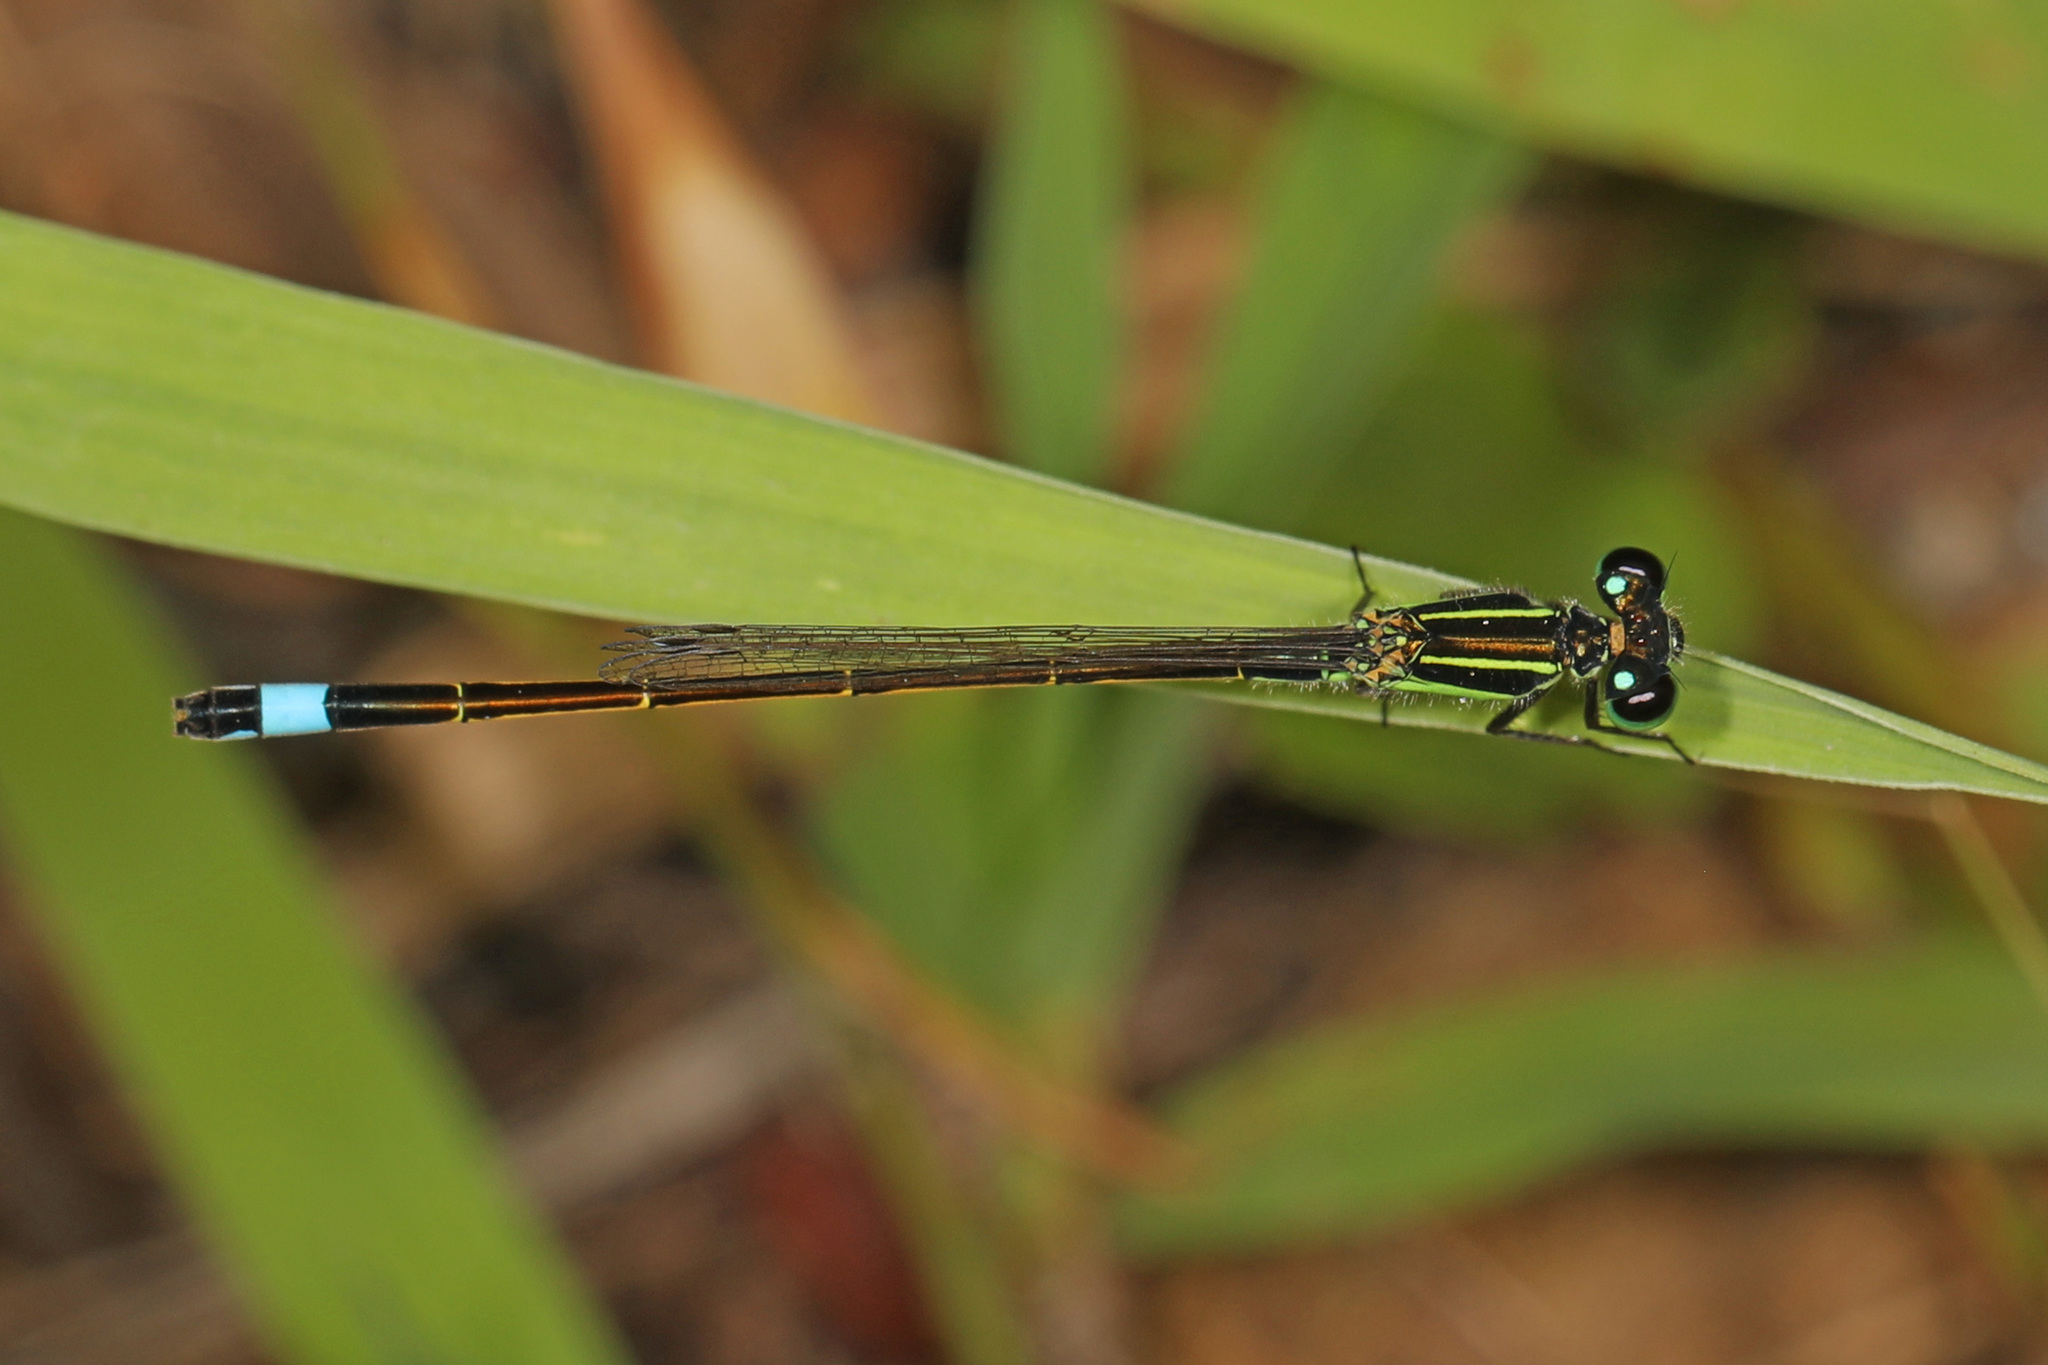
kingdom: Animalia
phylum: Arthropoda
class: Insecta
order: Odonata
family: Coenagrionidae
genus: Ischnura
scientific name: Ischnura ramburii
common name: Rambur's forktail
